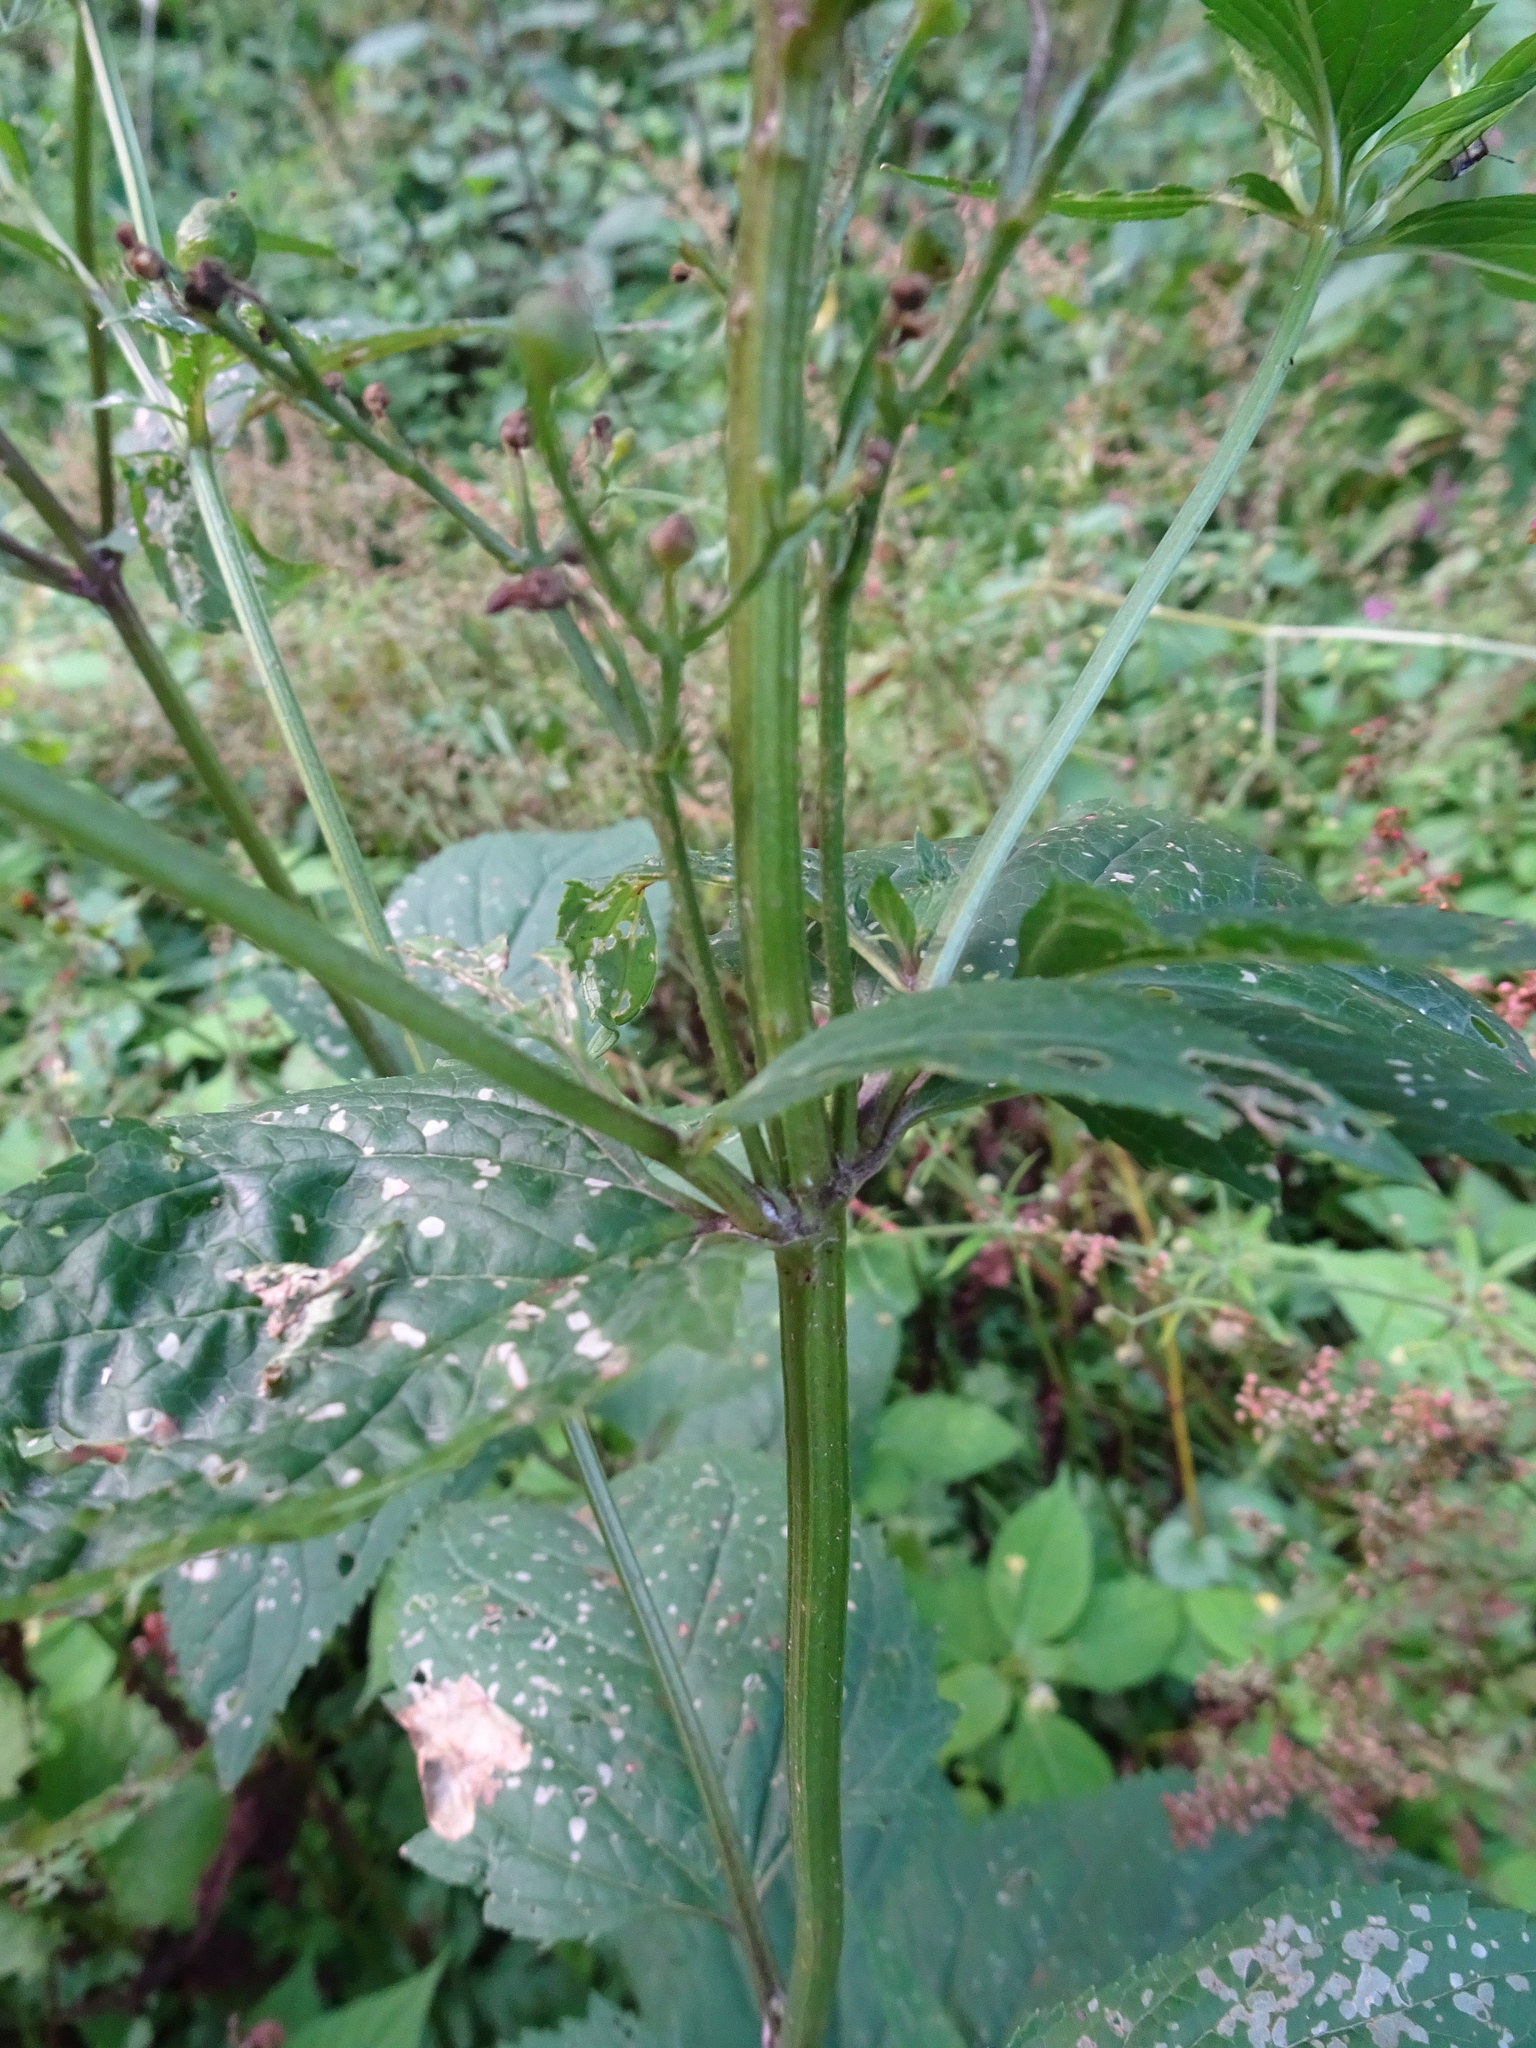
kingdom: Plantae
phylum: Tracheophyta
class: Magnoliopsida
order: Lamiales
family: Scrophulariaceae
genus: Scrophularia
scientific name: Scrophularia nodosa
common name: Common figwort
